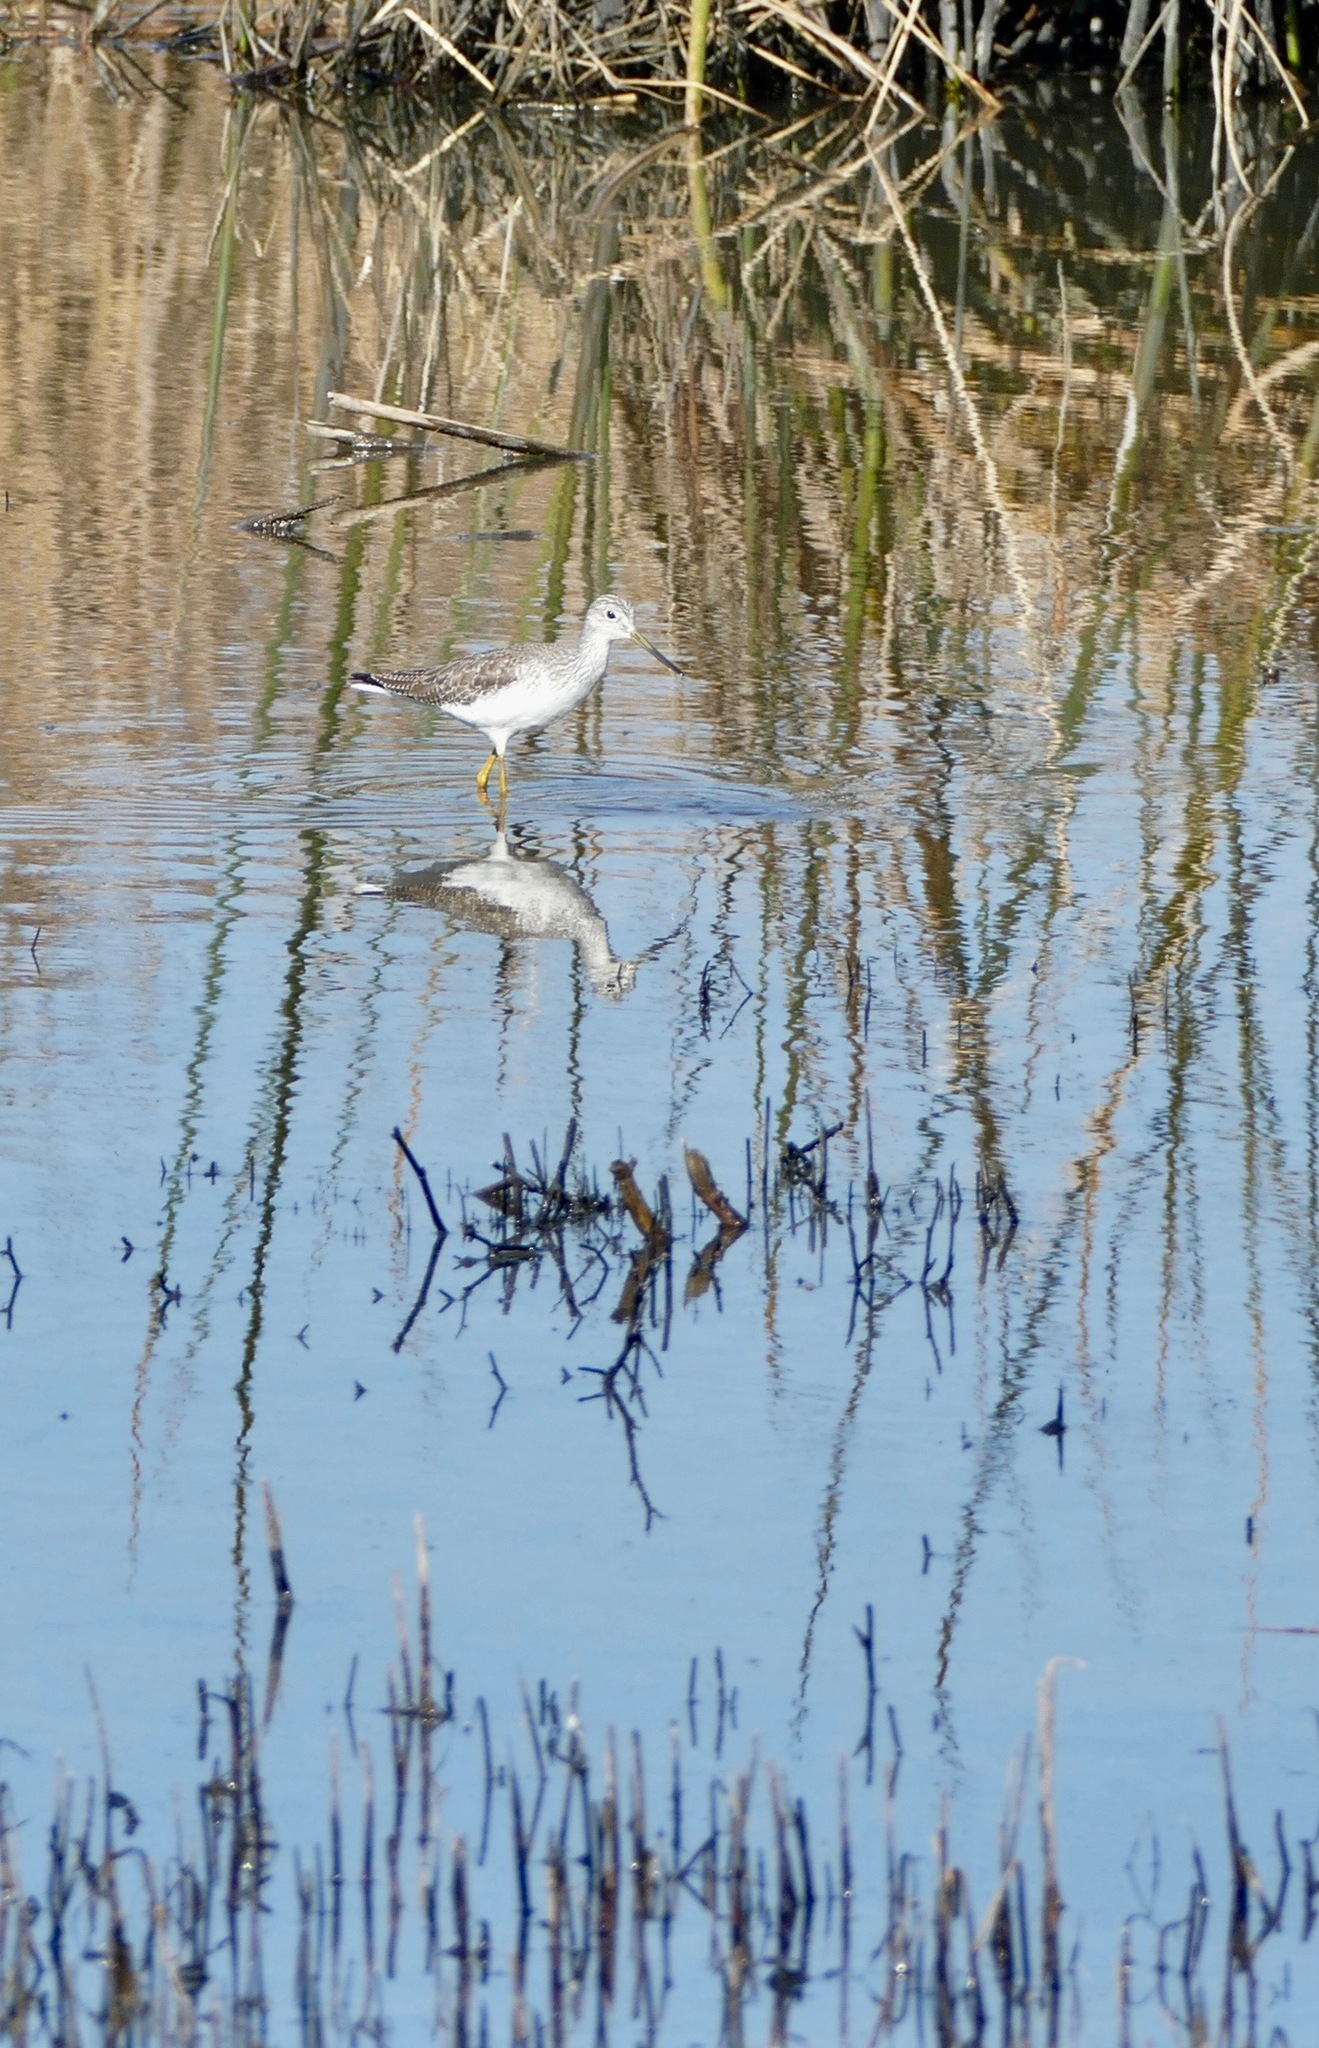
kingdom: Animalia
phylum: Chordata
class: Aves
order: Charadriiformes
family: Scolopacidae
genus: Tringa
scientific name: Tringa melanoleuca
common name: Greater yellowlegs
